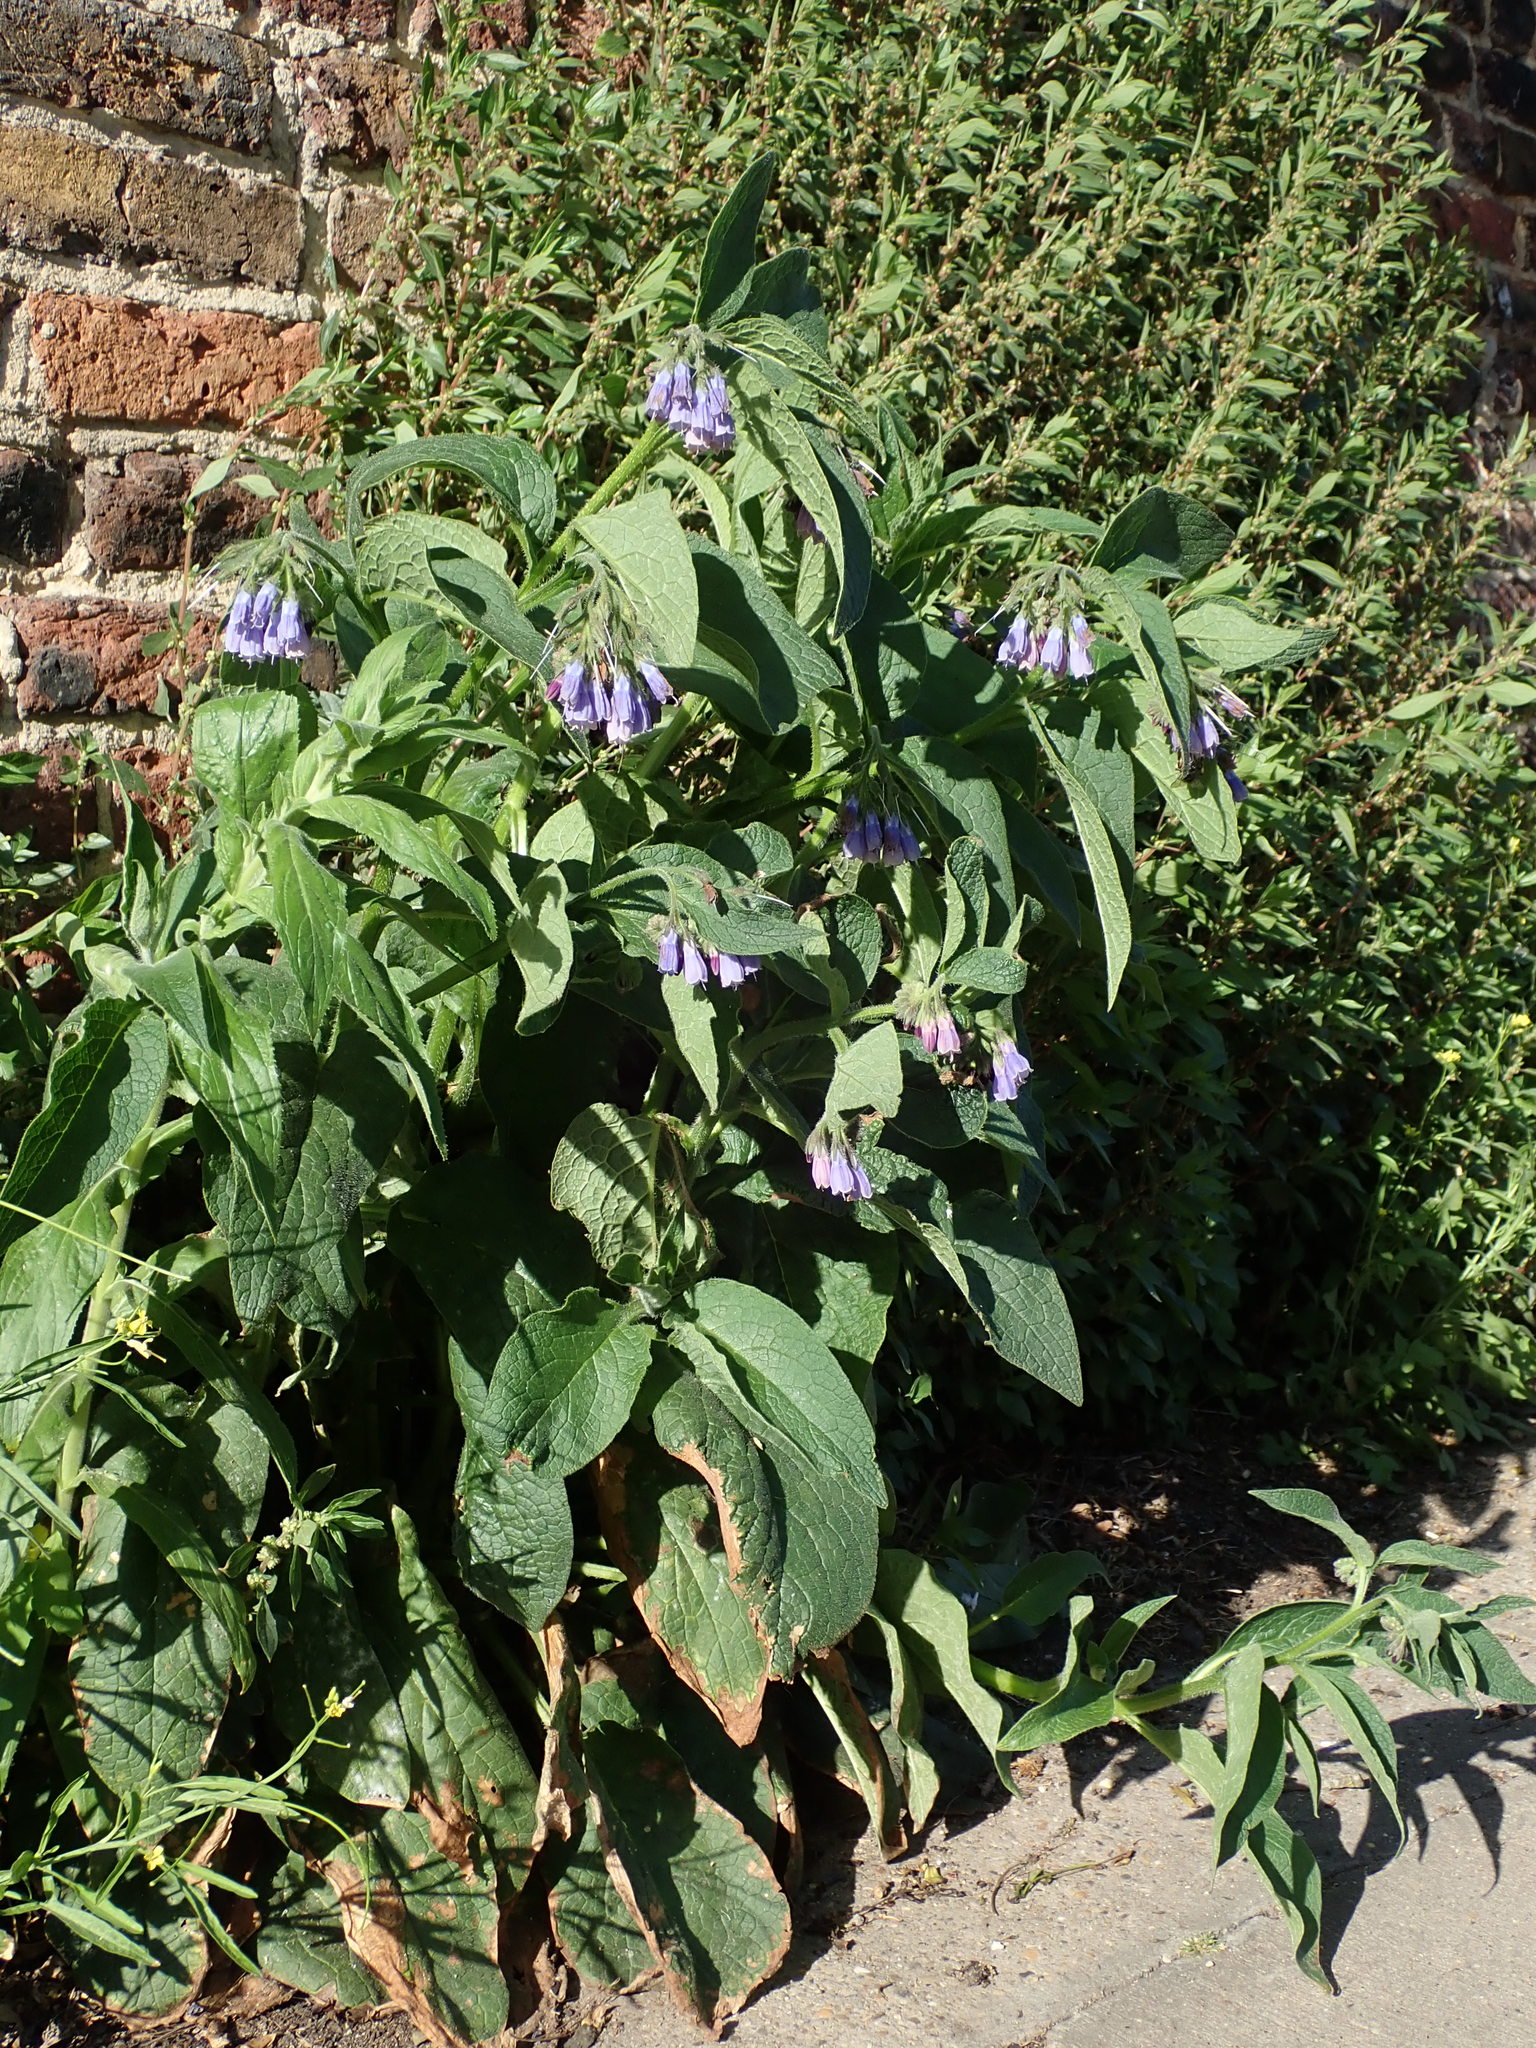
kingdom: Plantae
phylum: Tracheophyta
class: Magnoliopsida
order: Boraginales
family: Boraginaceae
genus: Symphytum
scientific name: Symphytum uplandicum
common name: Russian comfrey
